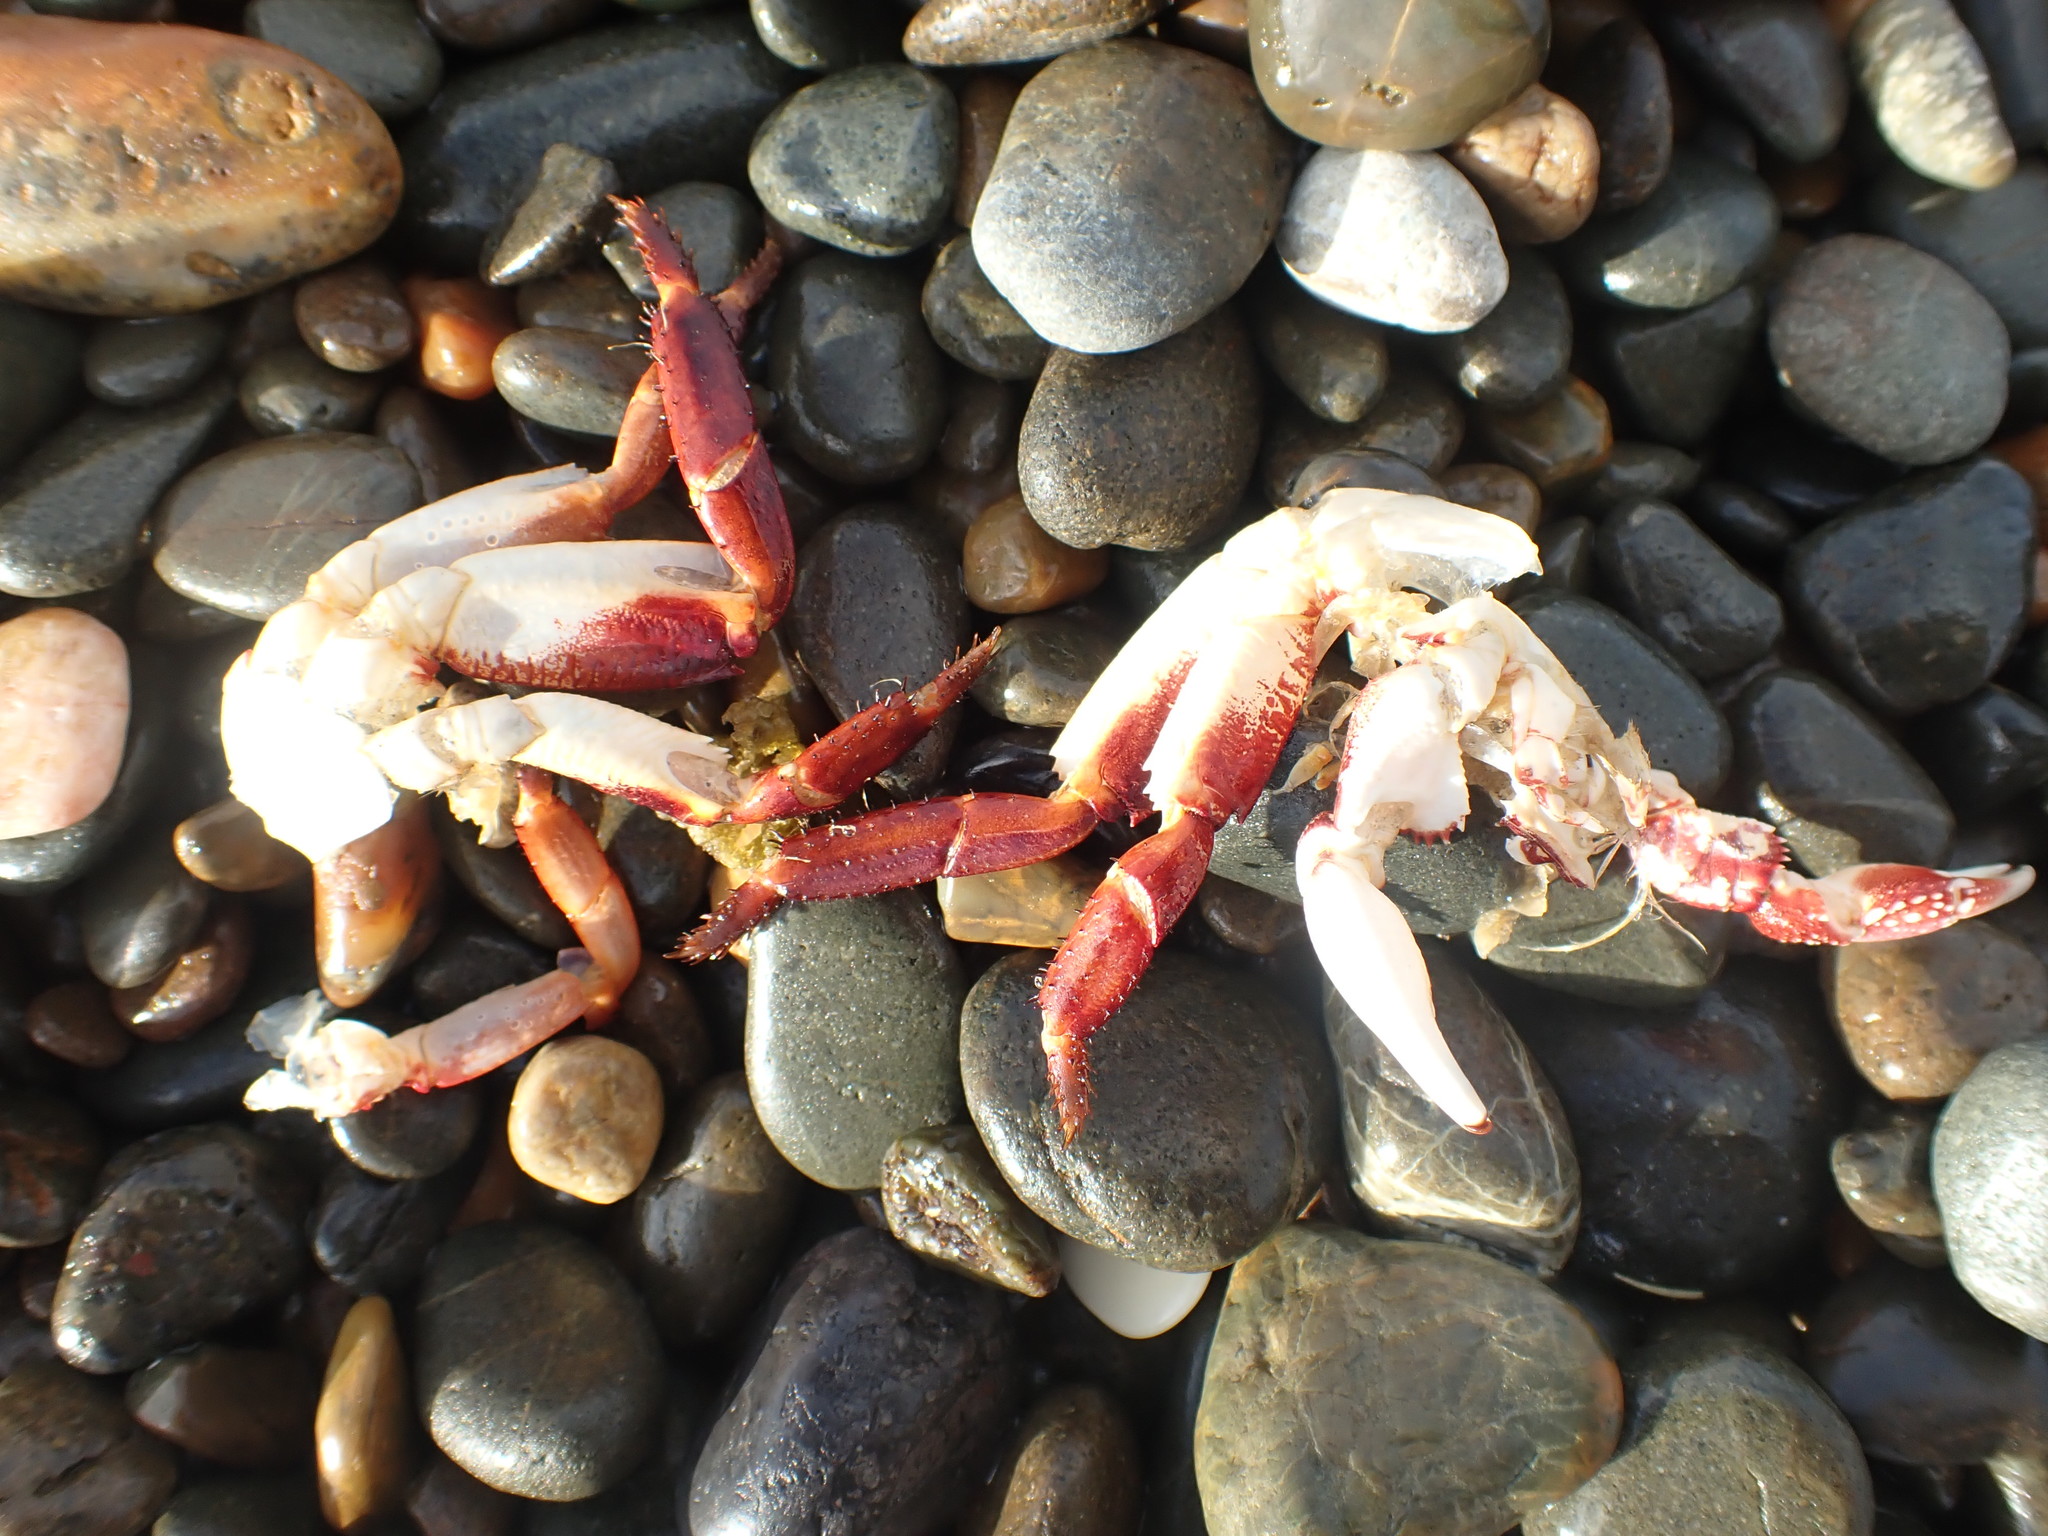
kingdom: Animalia
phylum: Arthropoda
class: Malacostraca
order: Decapoda
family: Grapsidae
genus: Leptograpsus
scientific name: Leptograpsus variegatus
